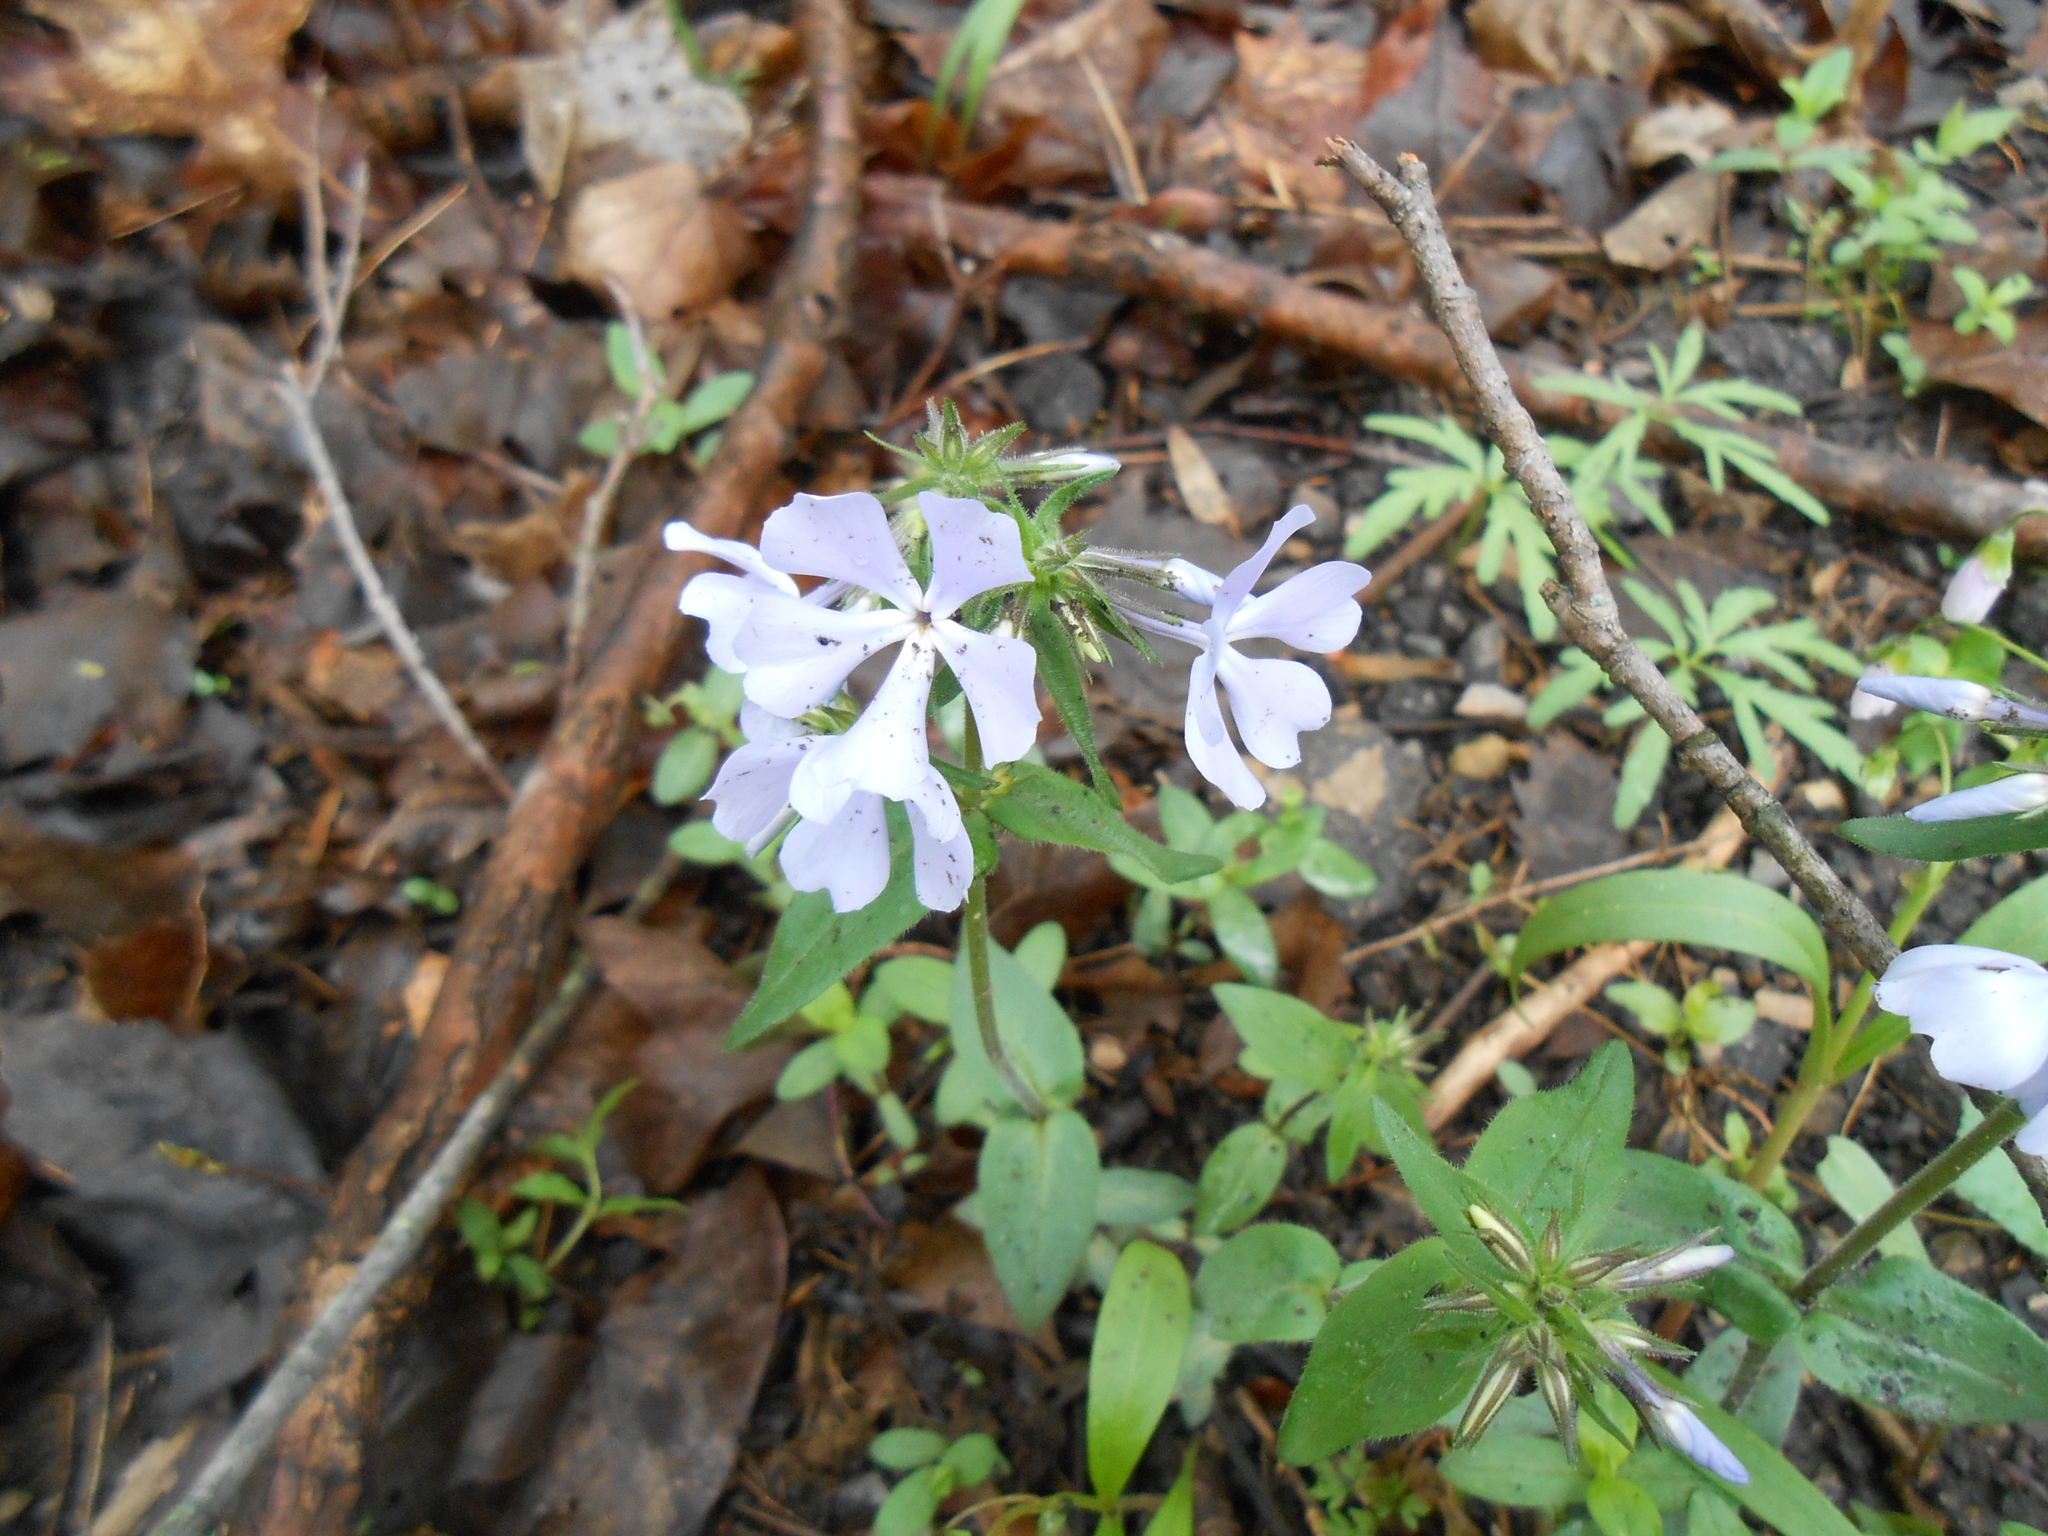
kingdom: Plantae
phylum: Tracheophyta
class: Magnoliopsida
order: Ericales
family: Polemoniaceae
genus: Phlox
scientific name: Phlox divaricata
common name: Blue phlox
